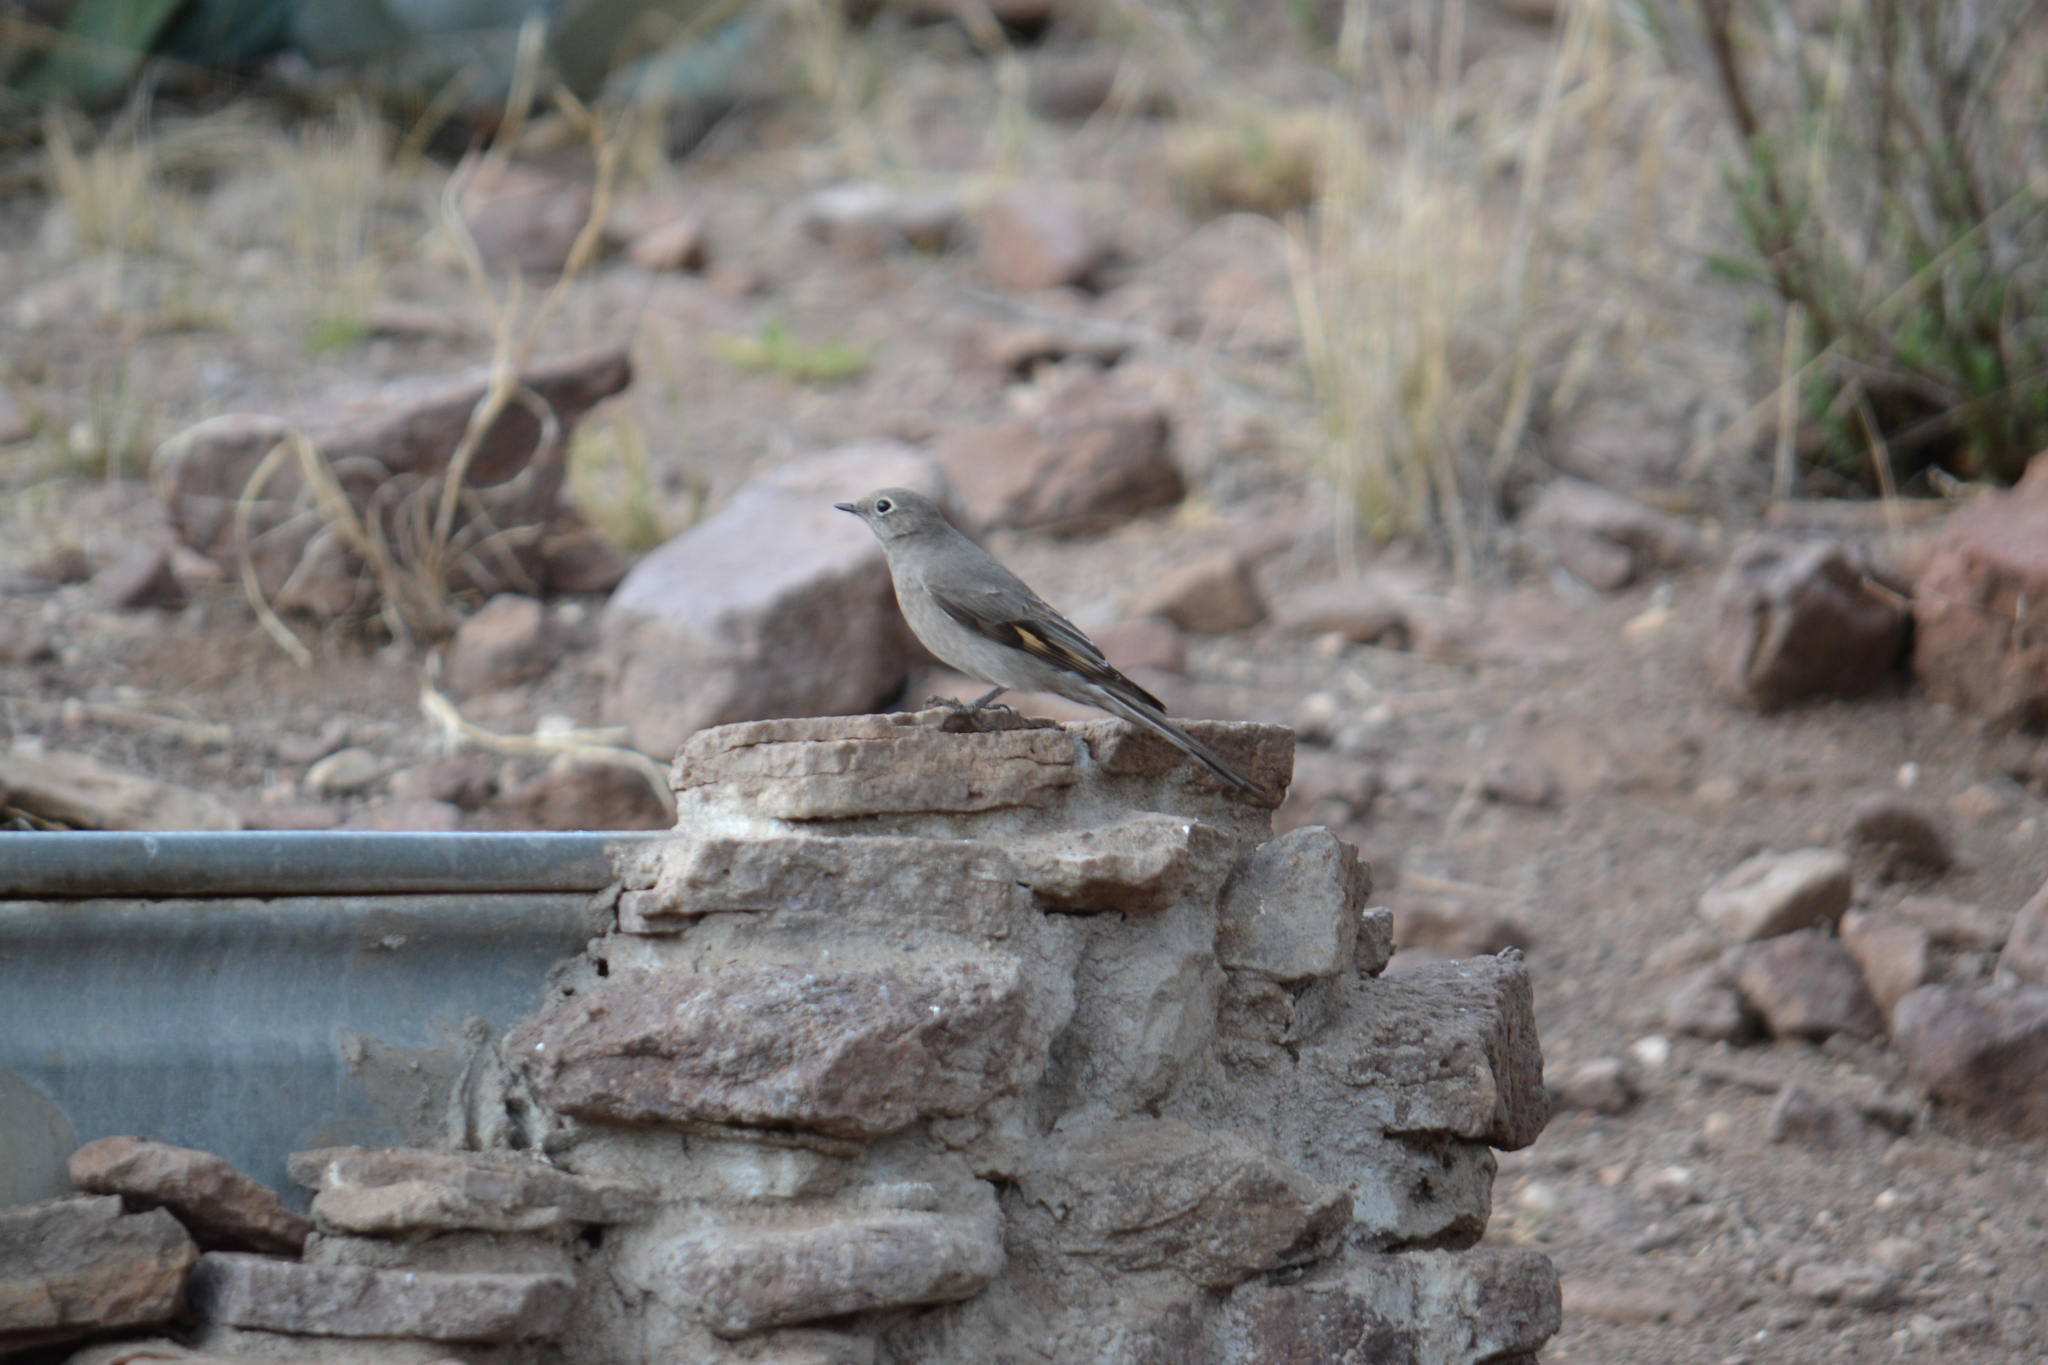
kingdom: Animalia
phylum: Chordata
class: Aves
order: Passeriformes
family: Turdidae
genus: Myadestes
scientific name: Myadestes townsendi
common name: Townsend's solitaire
